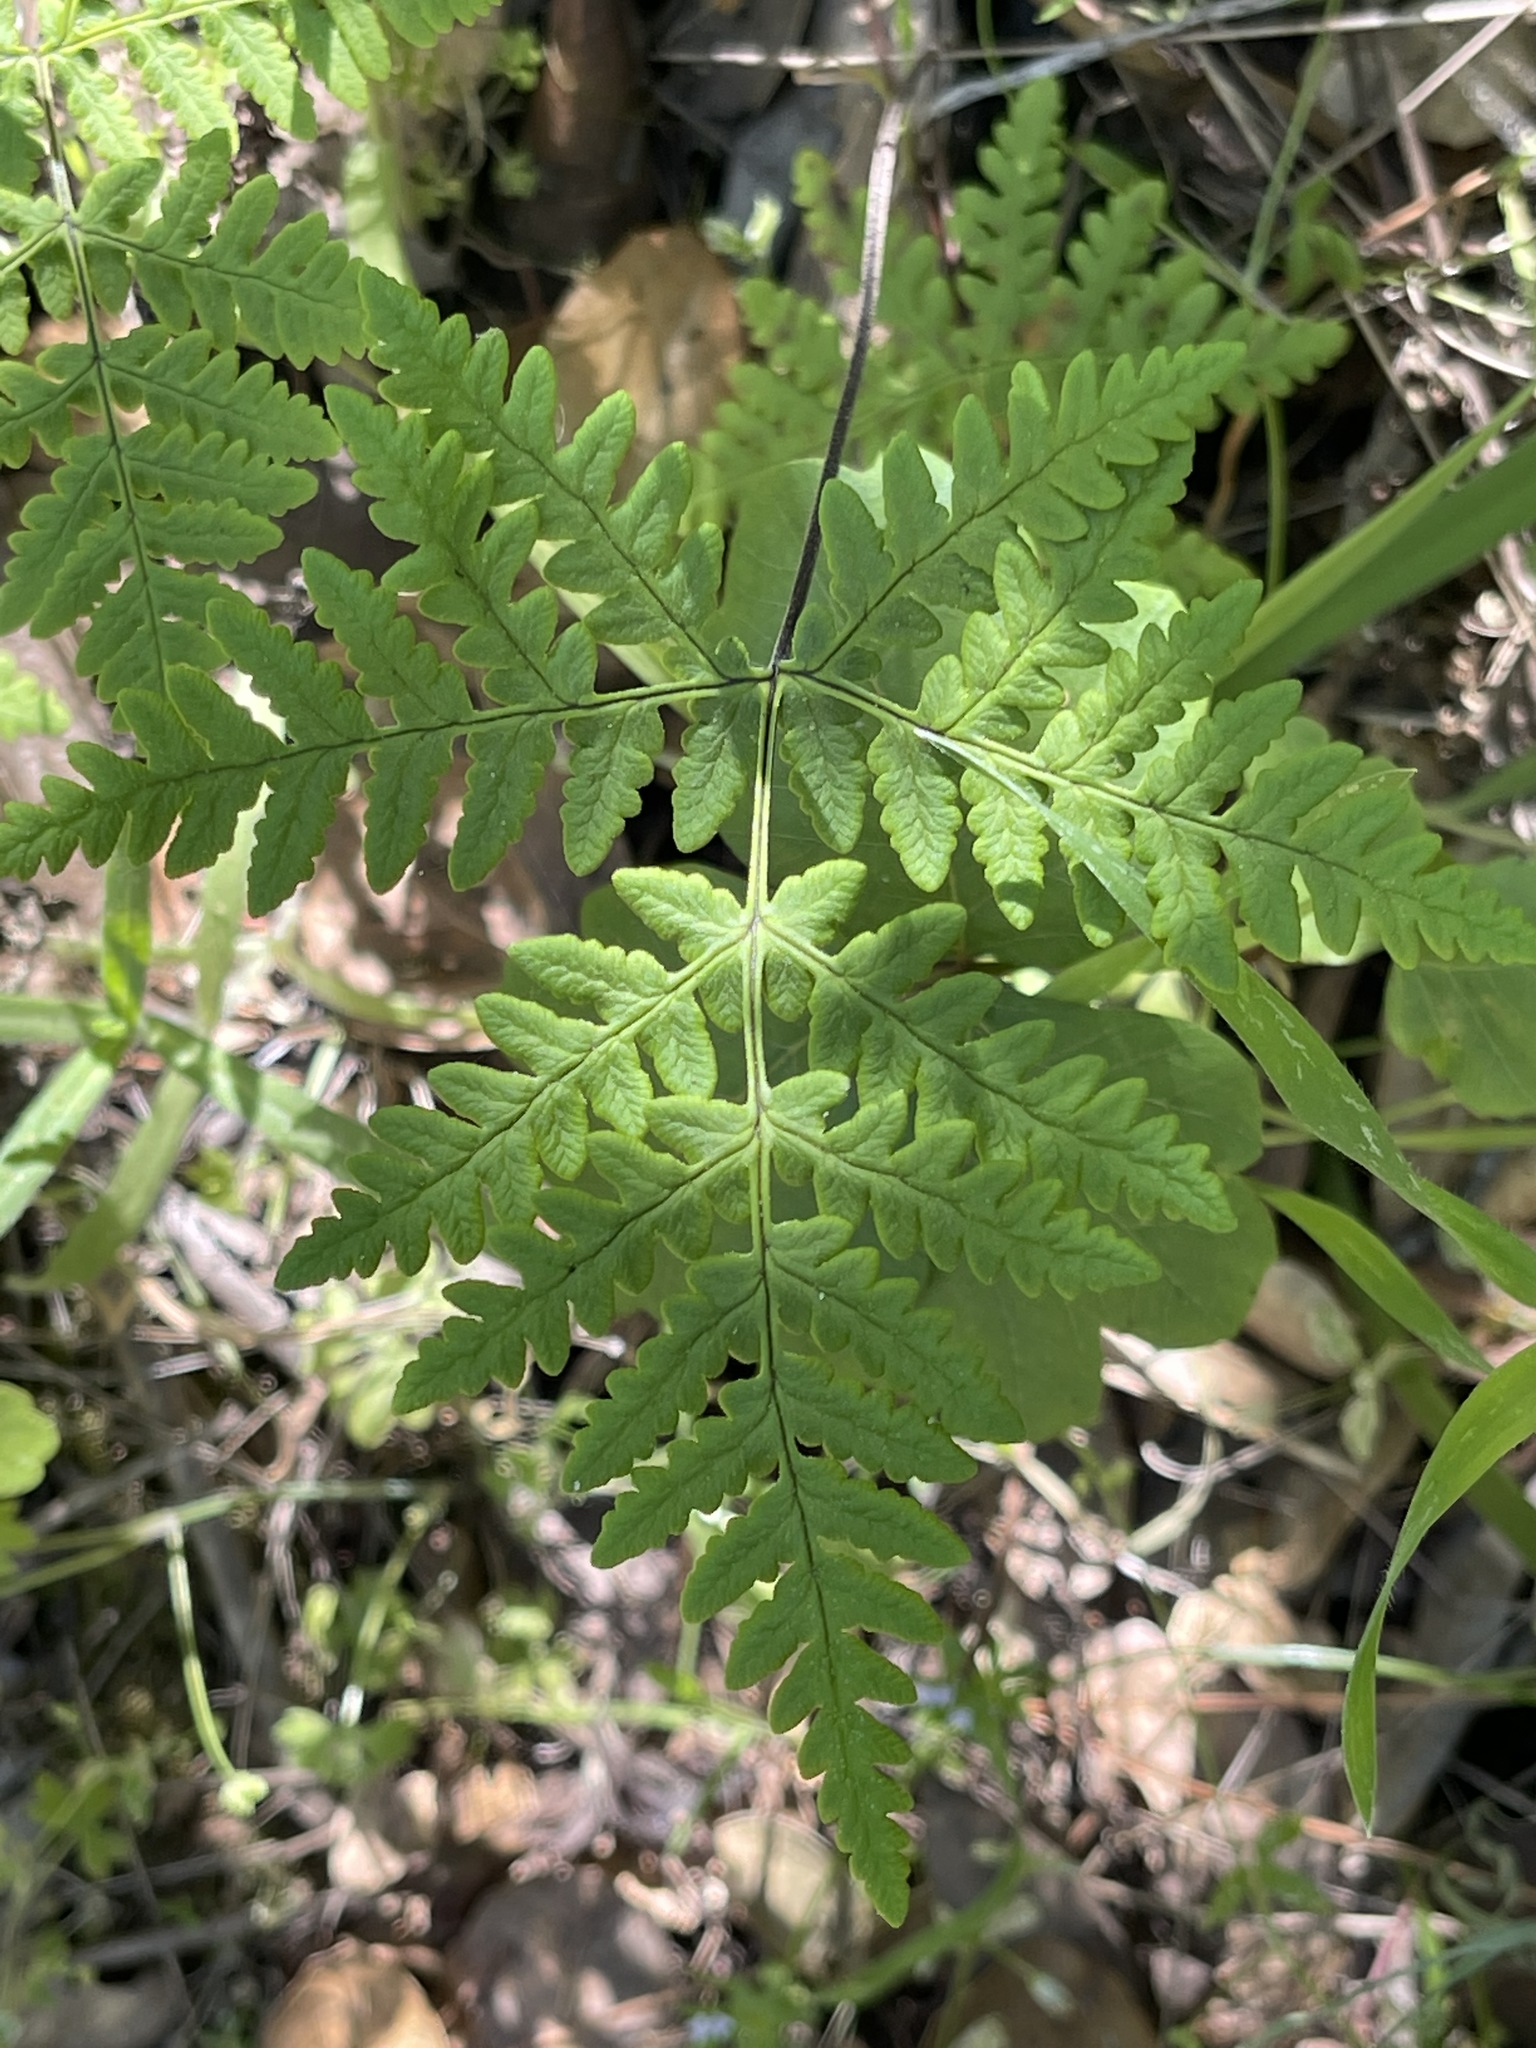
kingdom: Plantae
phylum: Tracheophyta
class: Polypodiopsida
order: Polypodiales
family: Pteridaceae
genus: Pentagramma
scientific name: Pentagramma triangularis
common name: Gold fern
